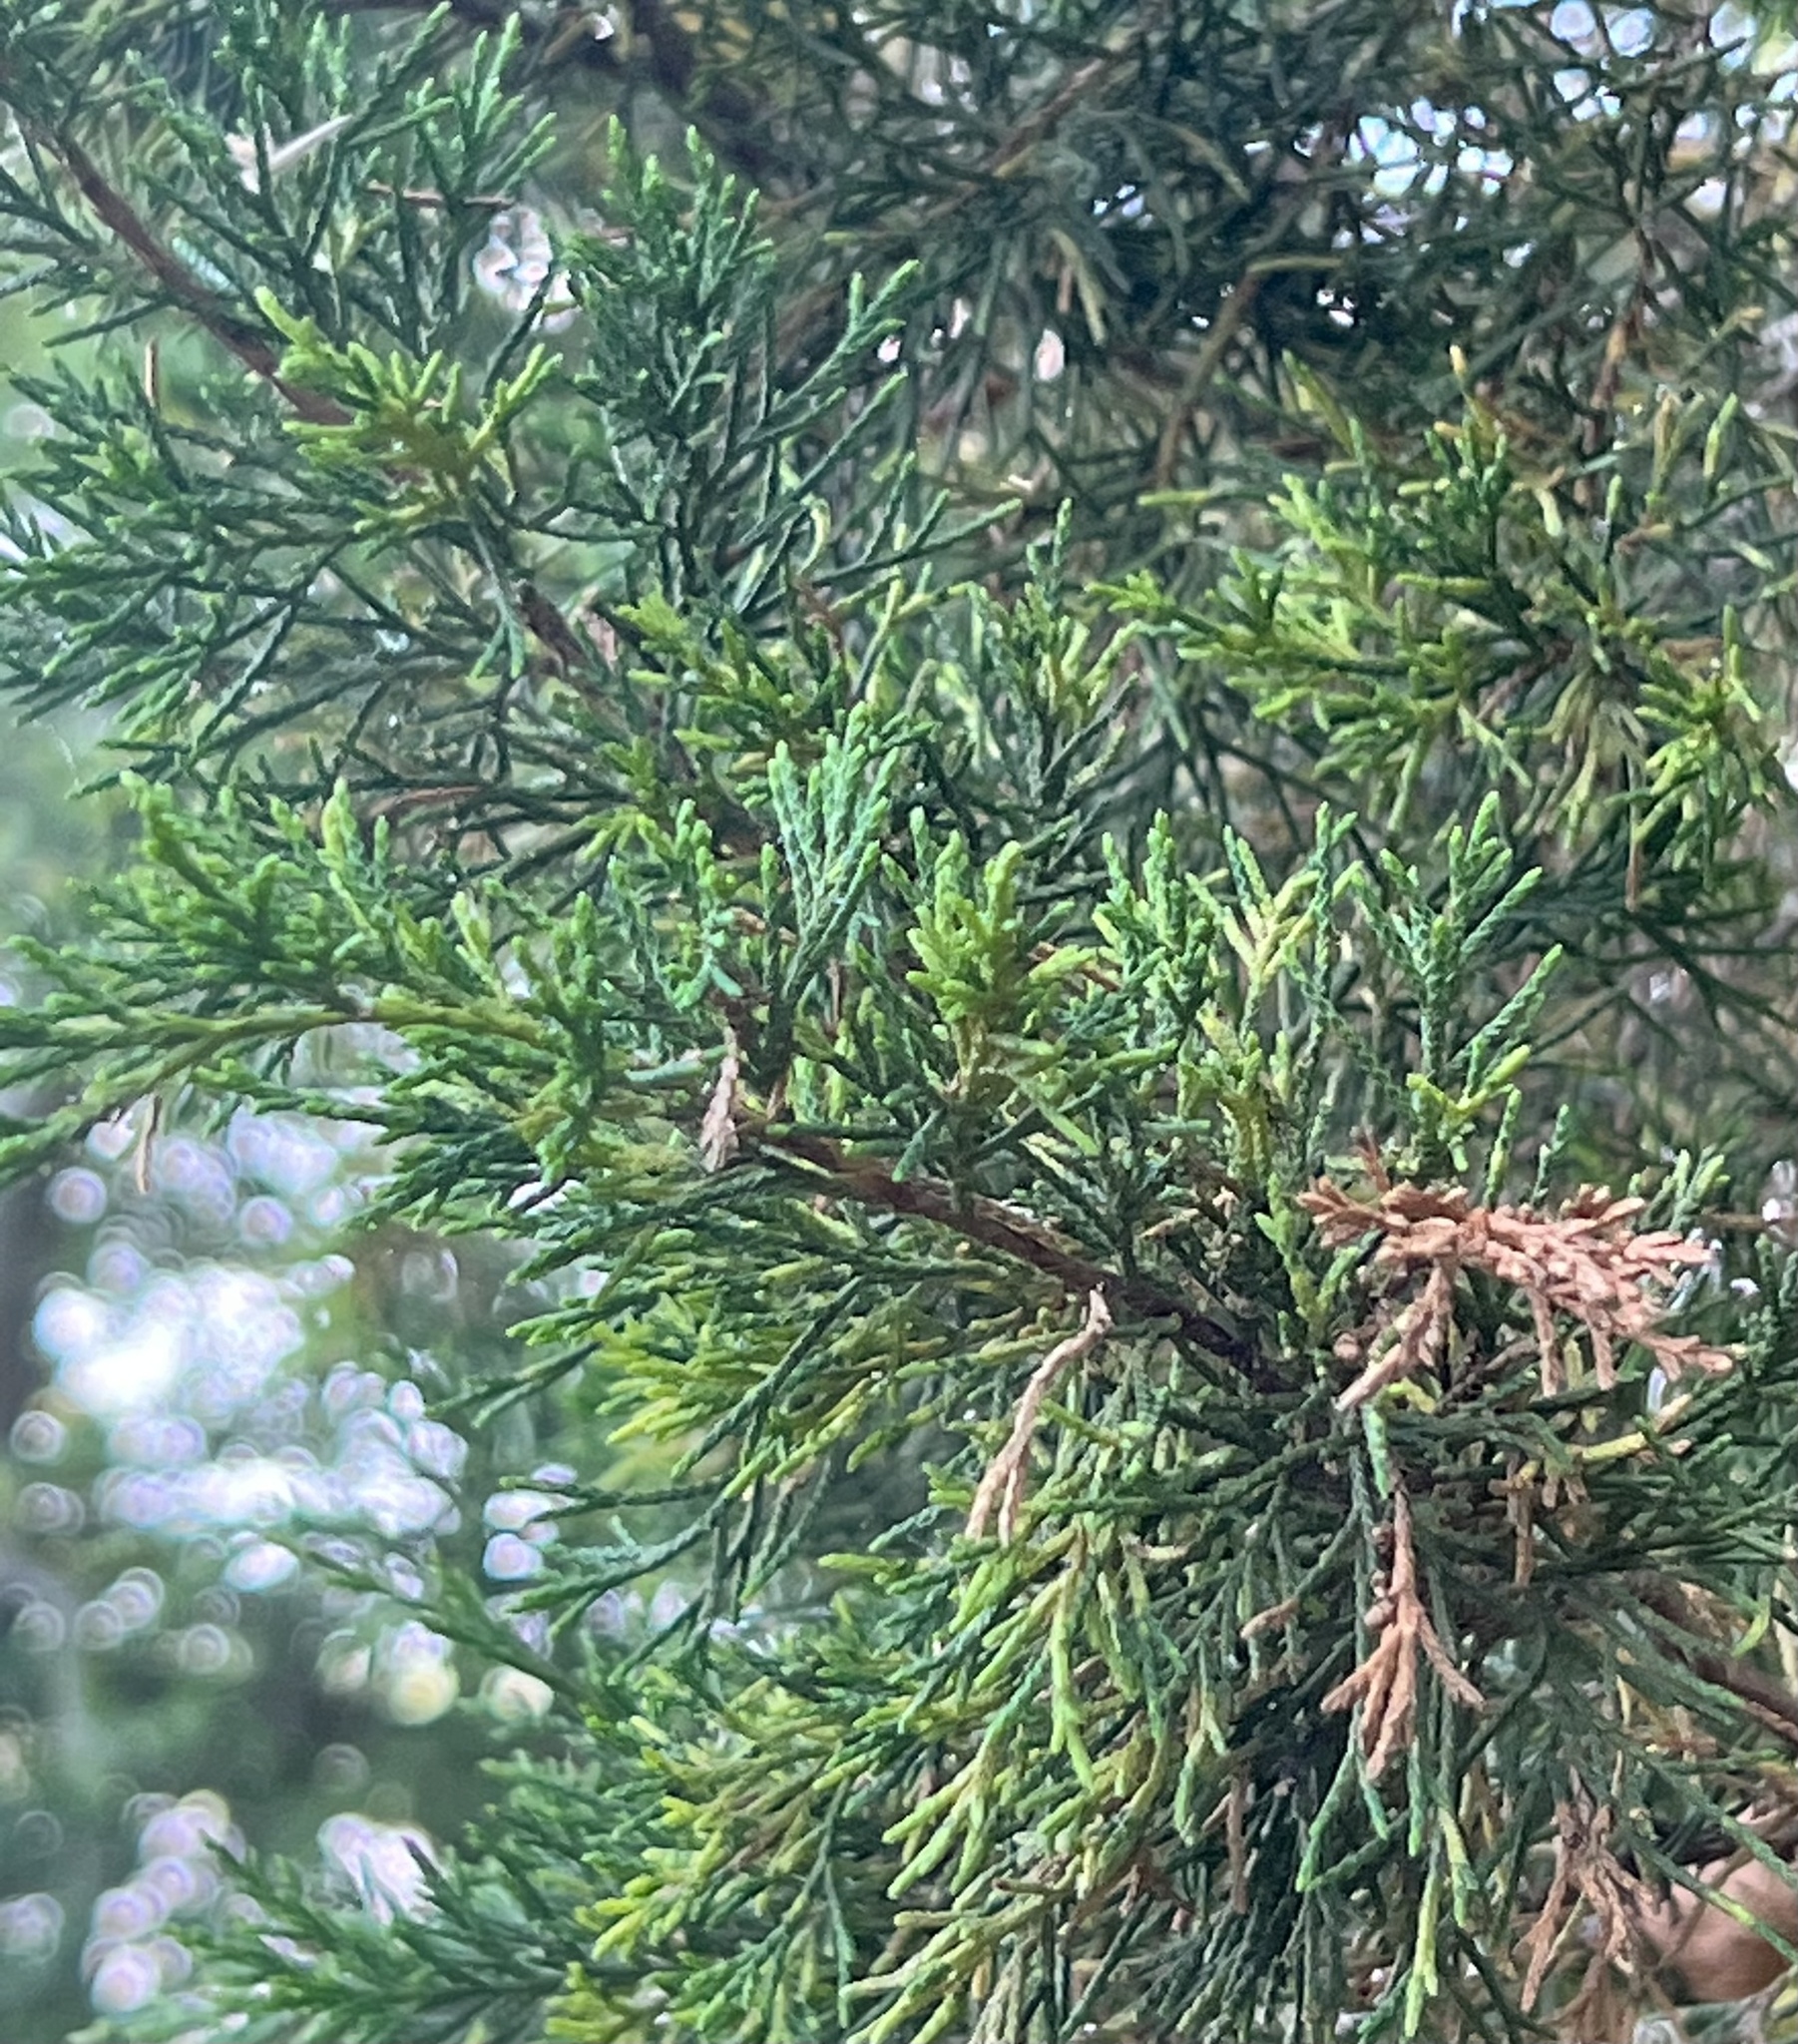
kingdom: Plantae
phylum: Tracheophyta
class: Pinopsida
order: Pinales
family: Cupressaceae
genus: Juniperus
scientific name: Juniperus virginiana
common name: Red juniper
